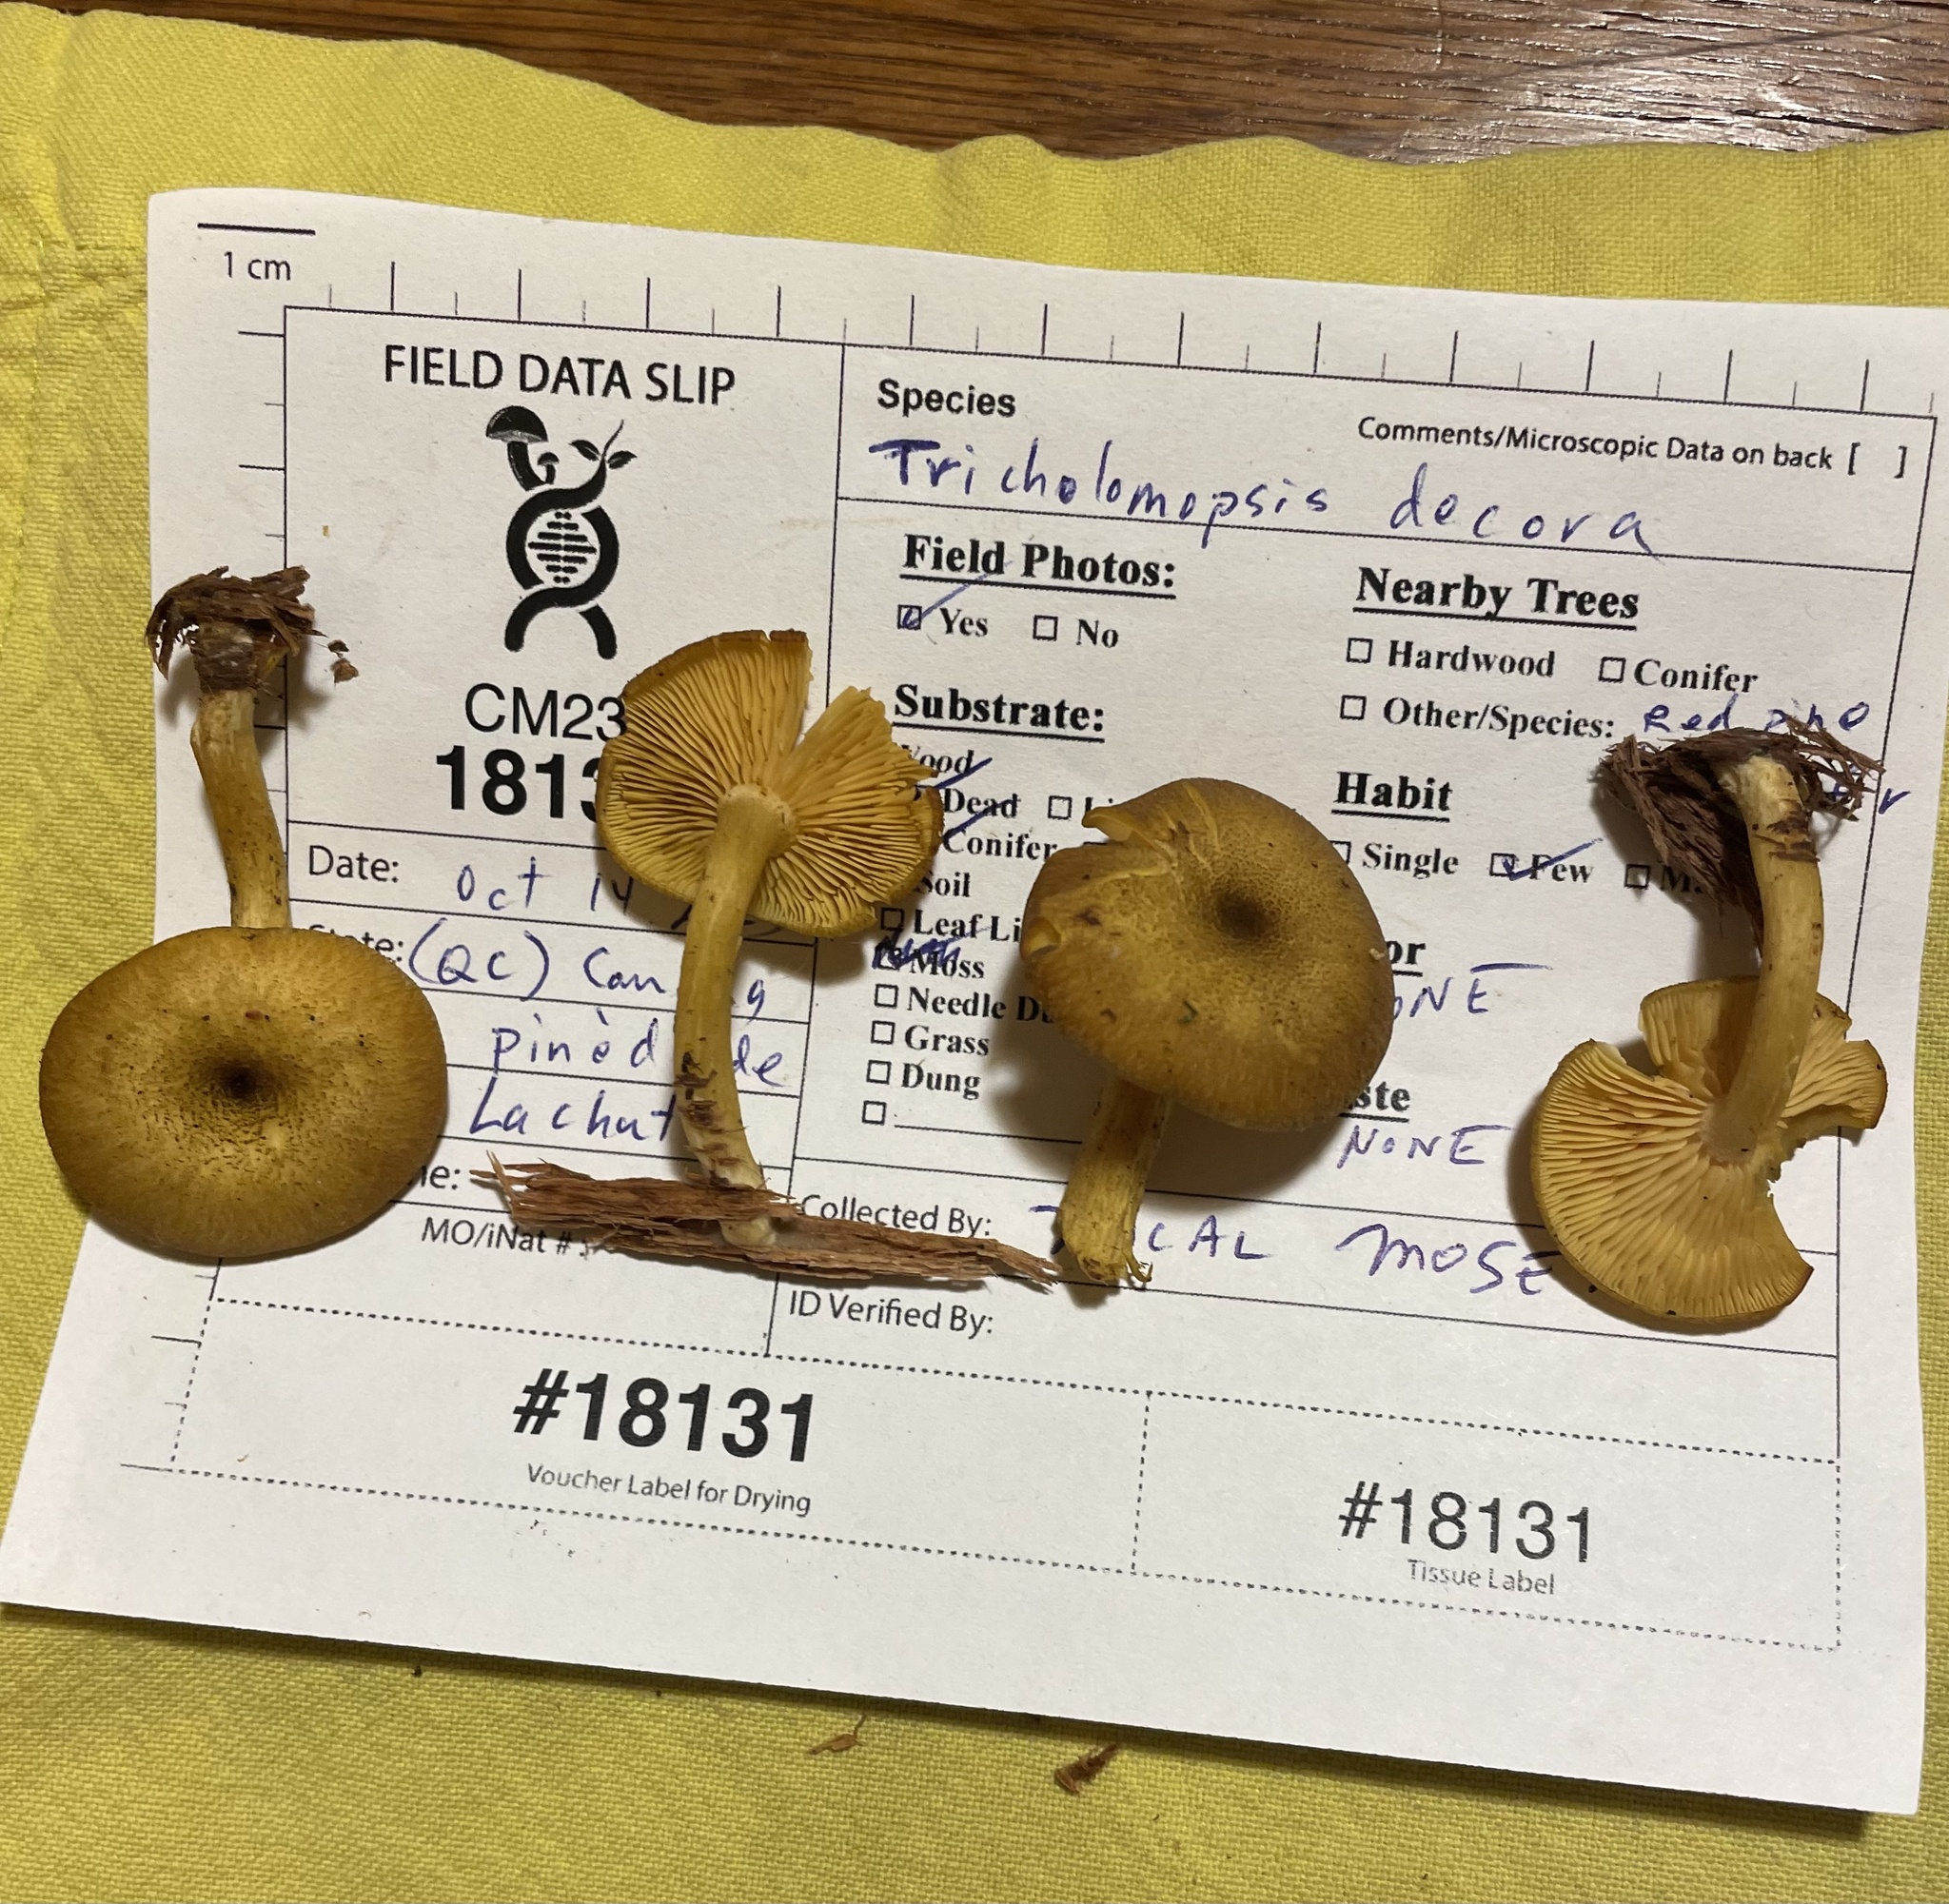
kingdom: Fungi
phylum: Basidiomycota
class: Agaricomycetes
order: Agaricales
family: Tricholomataceae
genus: Tricholomopsis
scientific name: Tricholomopsis decora
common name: Prunes and custard
